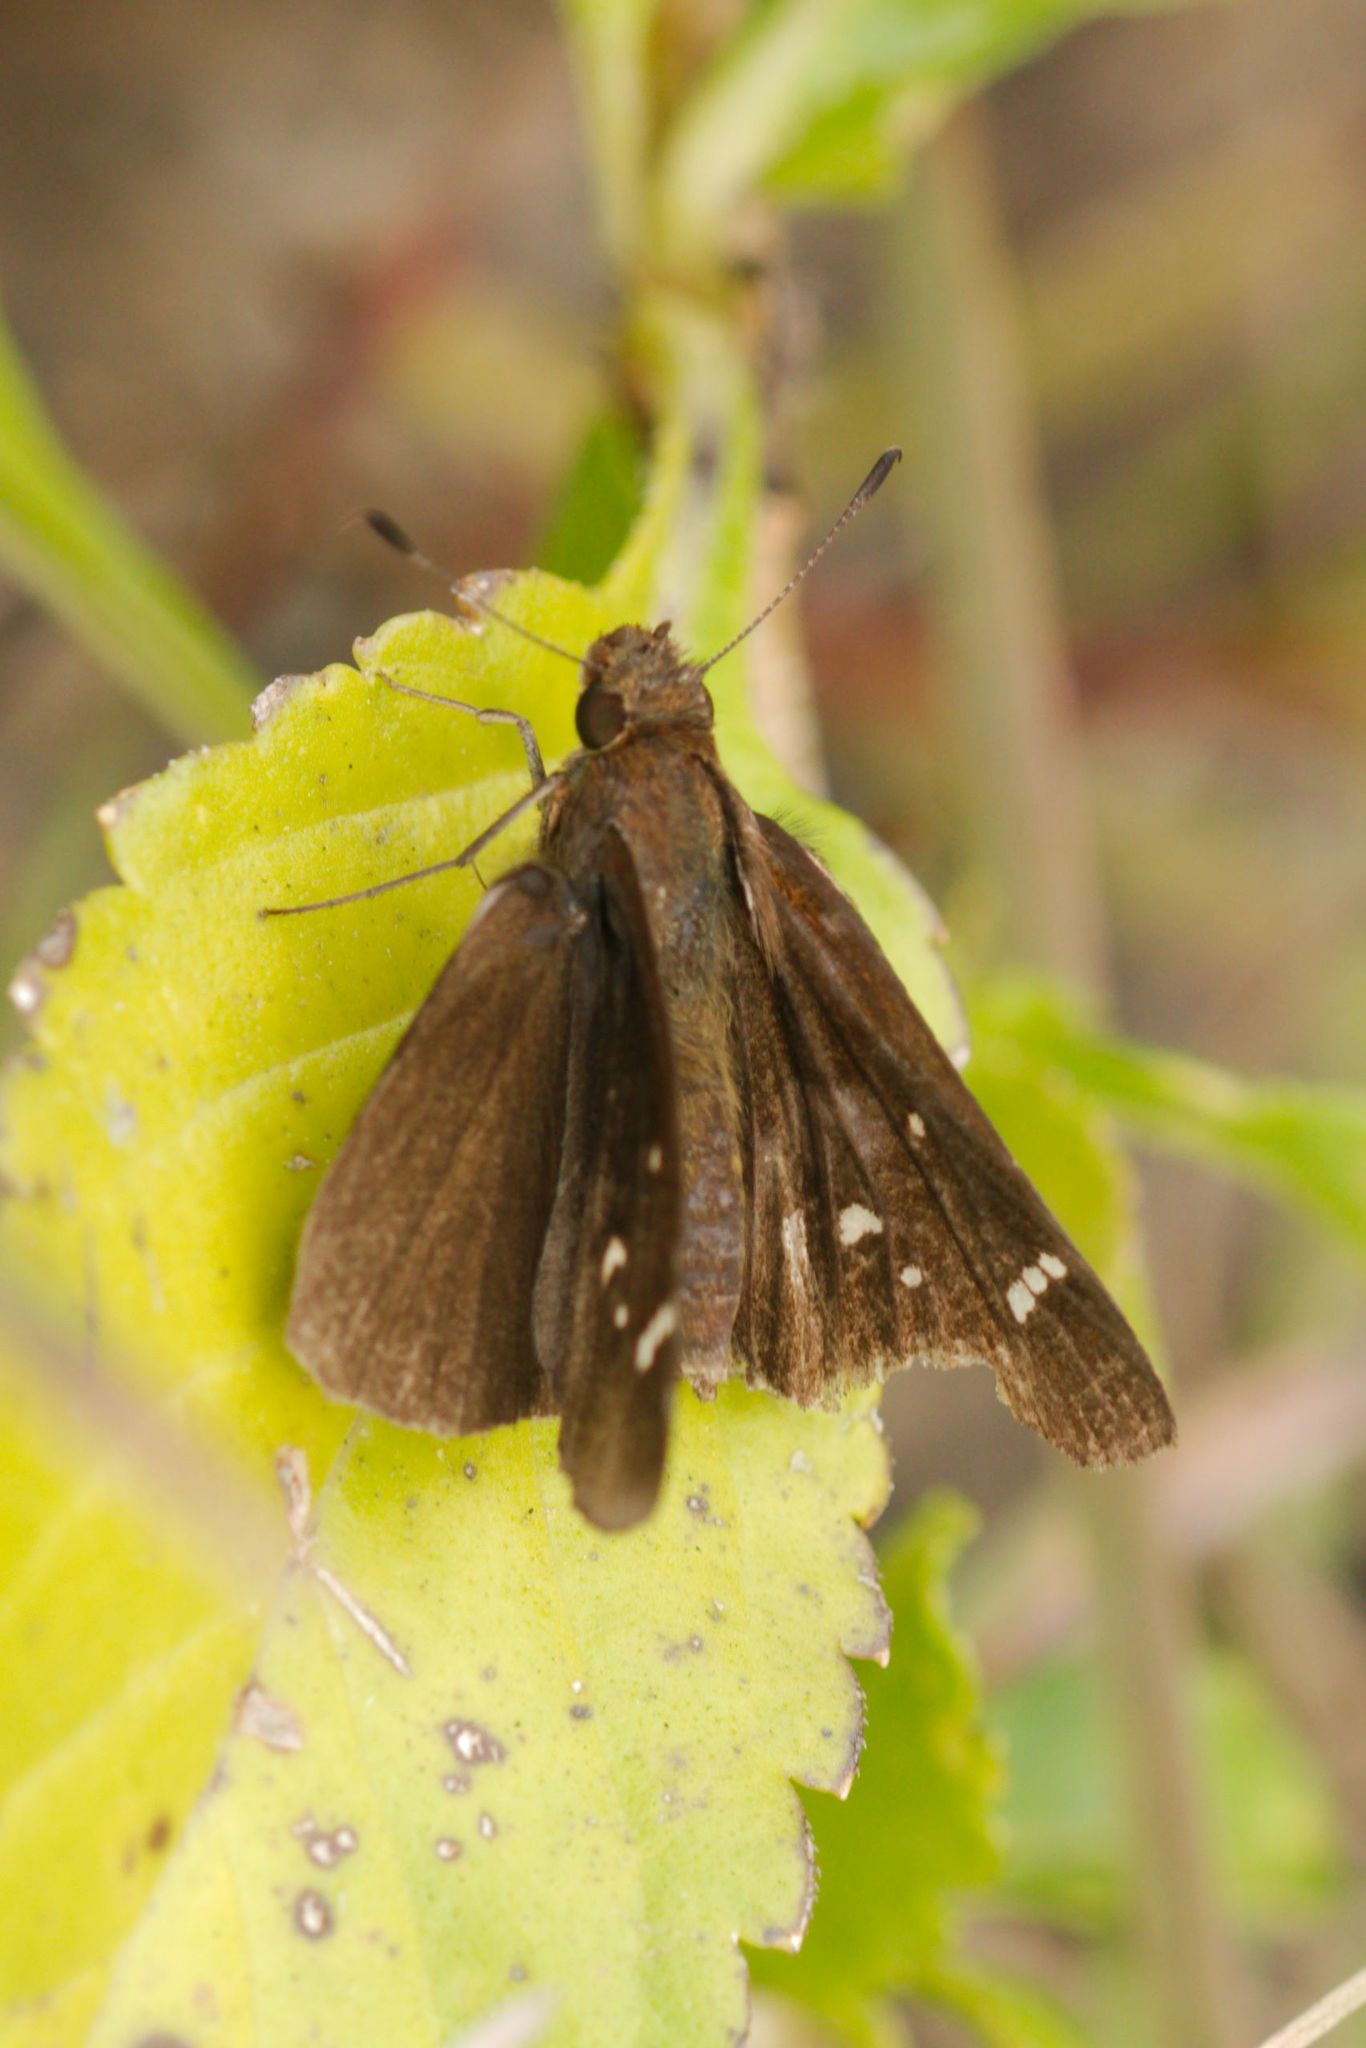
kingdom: Animalia
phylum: Arthropoda
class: Insecta
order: Lepidoptera
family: Hesperiidae
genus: Lerema
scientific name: Lerema accius
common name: Clouded skipper
